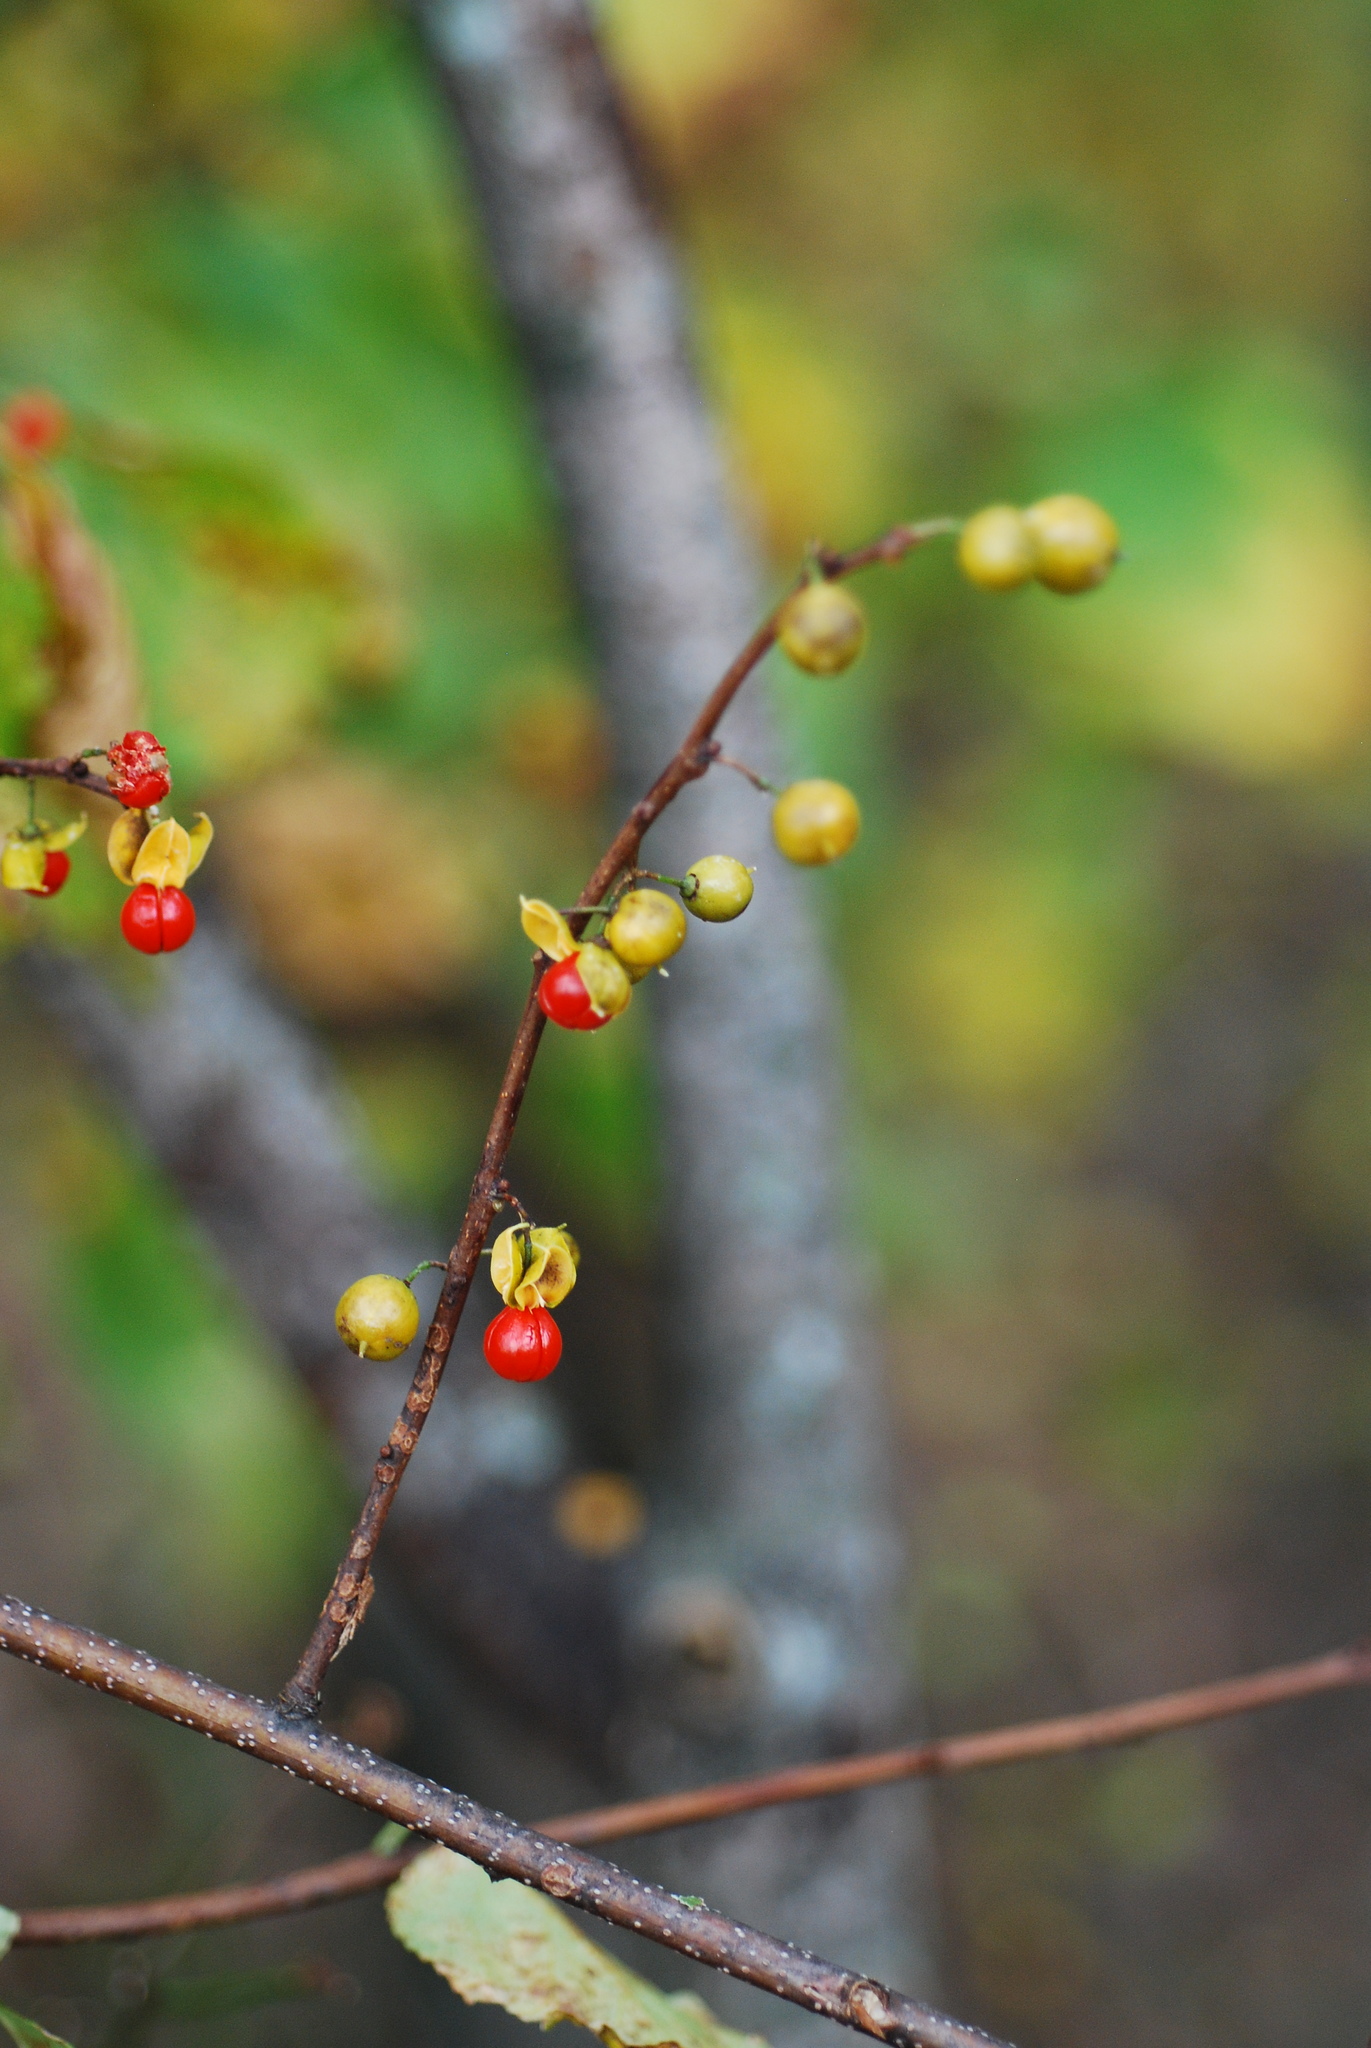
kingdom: Plantae
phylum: Tracheophyta
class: Magnoliopsida
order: Celastrales
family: Celastraceae
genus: Celastrus
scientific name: Celastrus orbiculatus
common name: Oriental bittersweet
